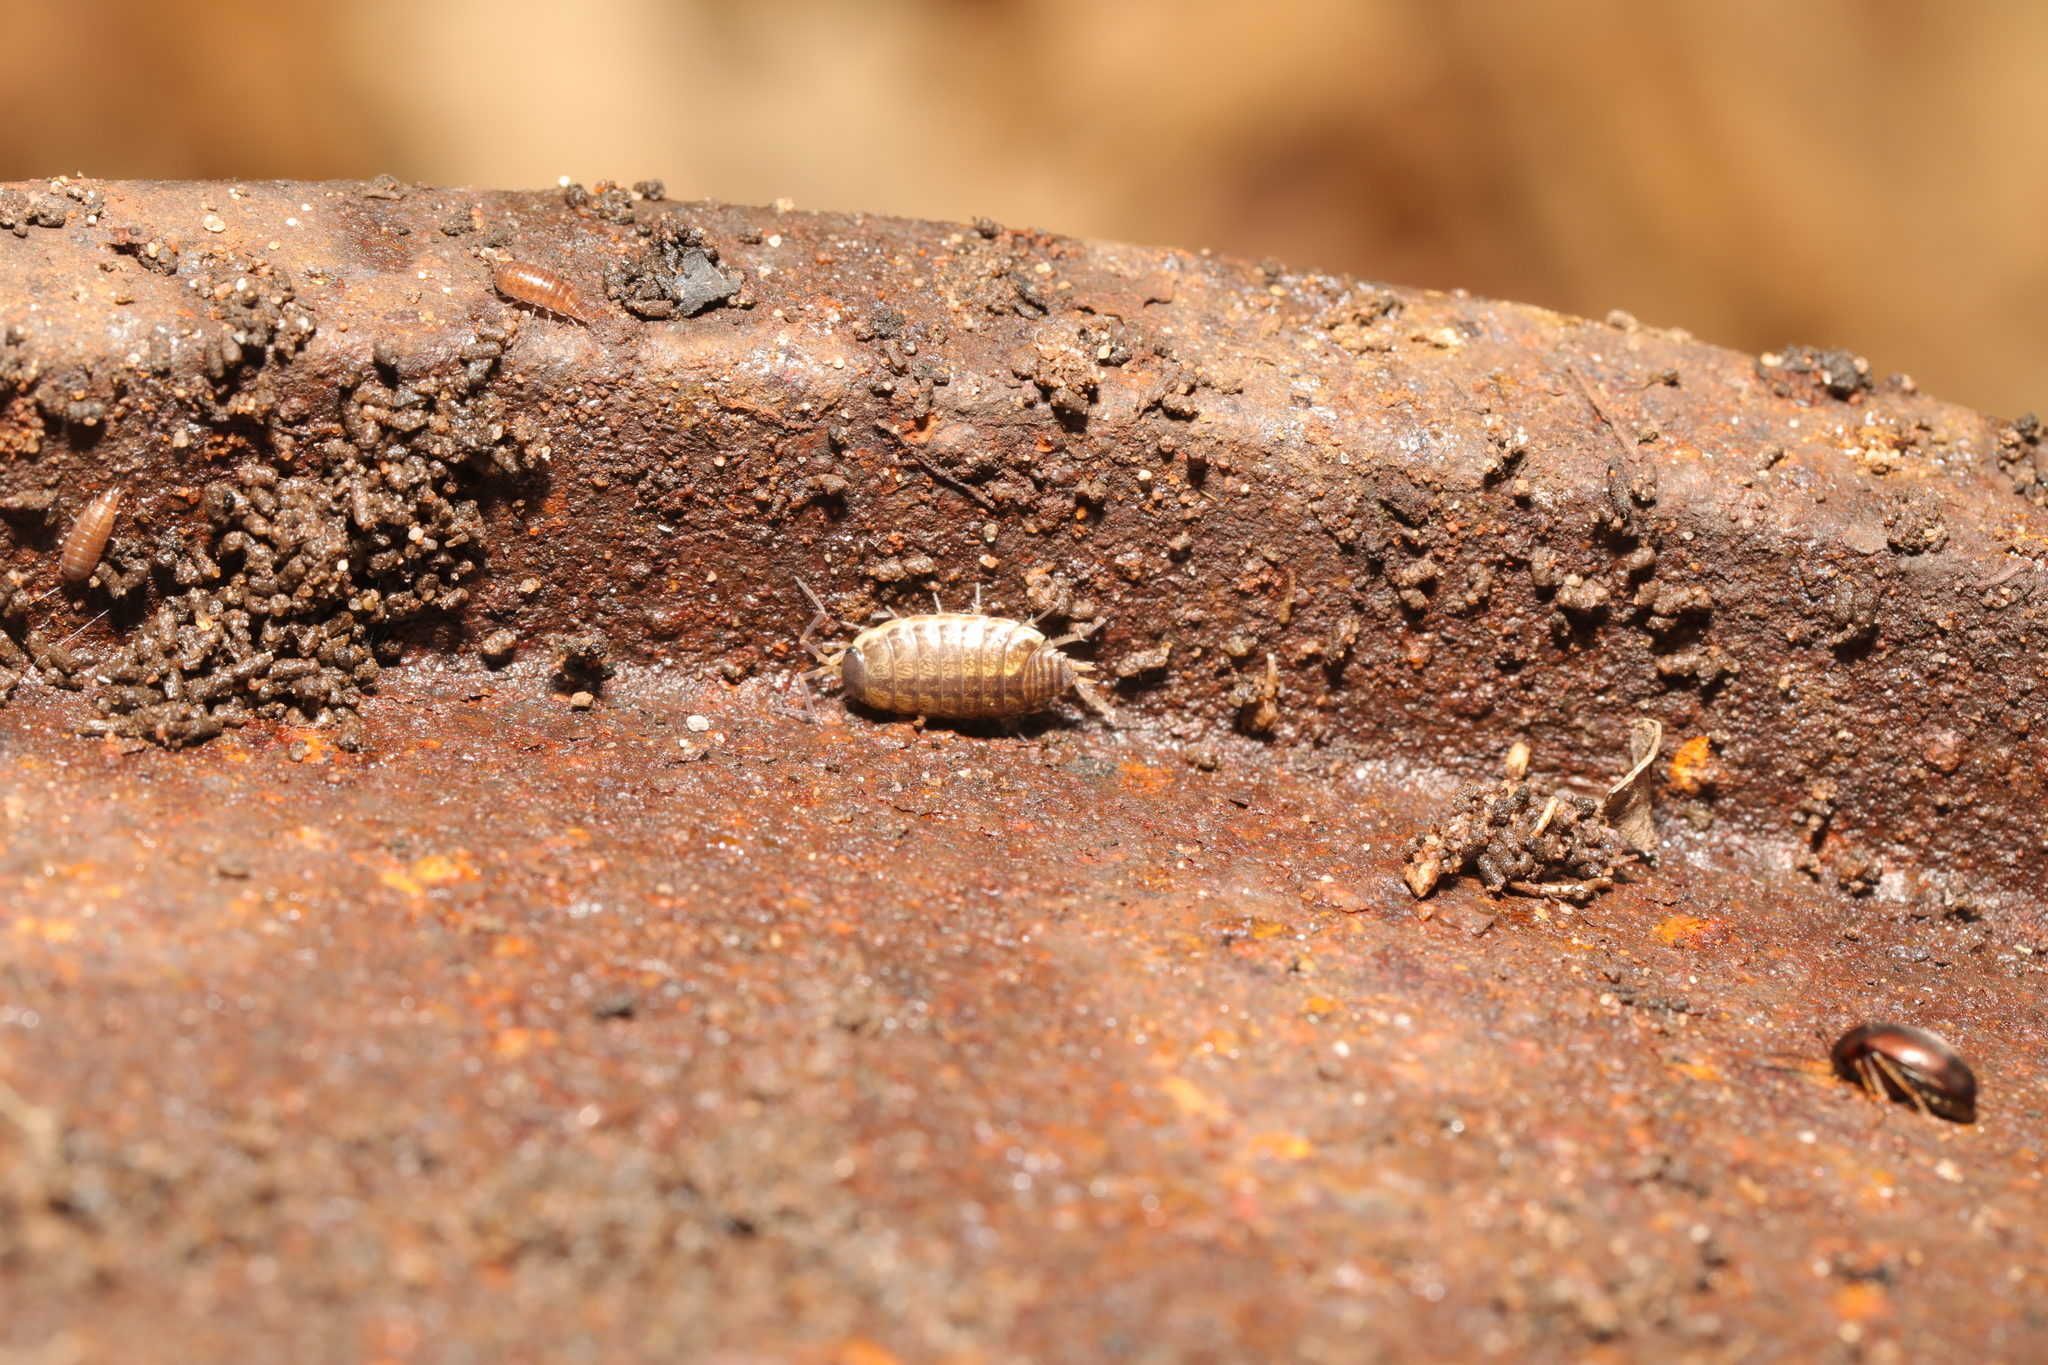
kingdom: Animalia
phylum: Arthropoda
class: Malacostraca
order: Isopoda
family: Philosciidae
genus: Philoscia
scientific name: Philoscia muscorum
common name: Common striped woodlouse
